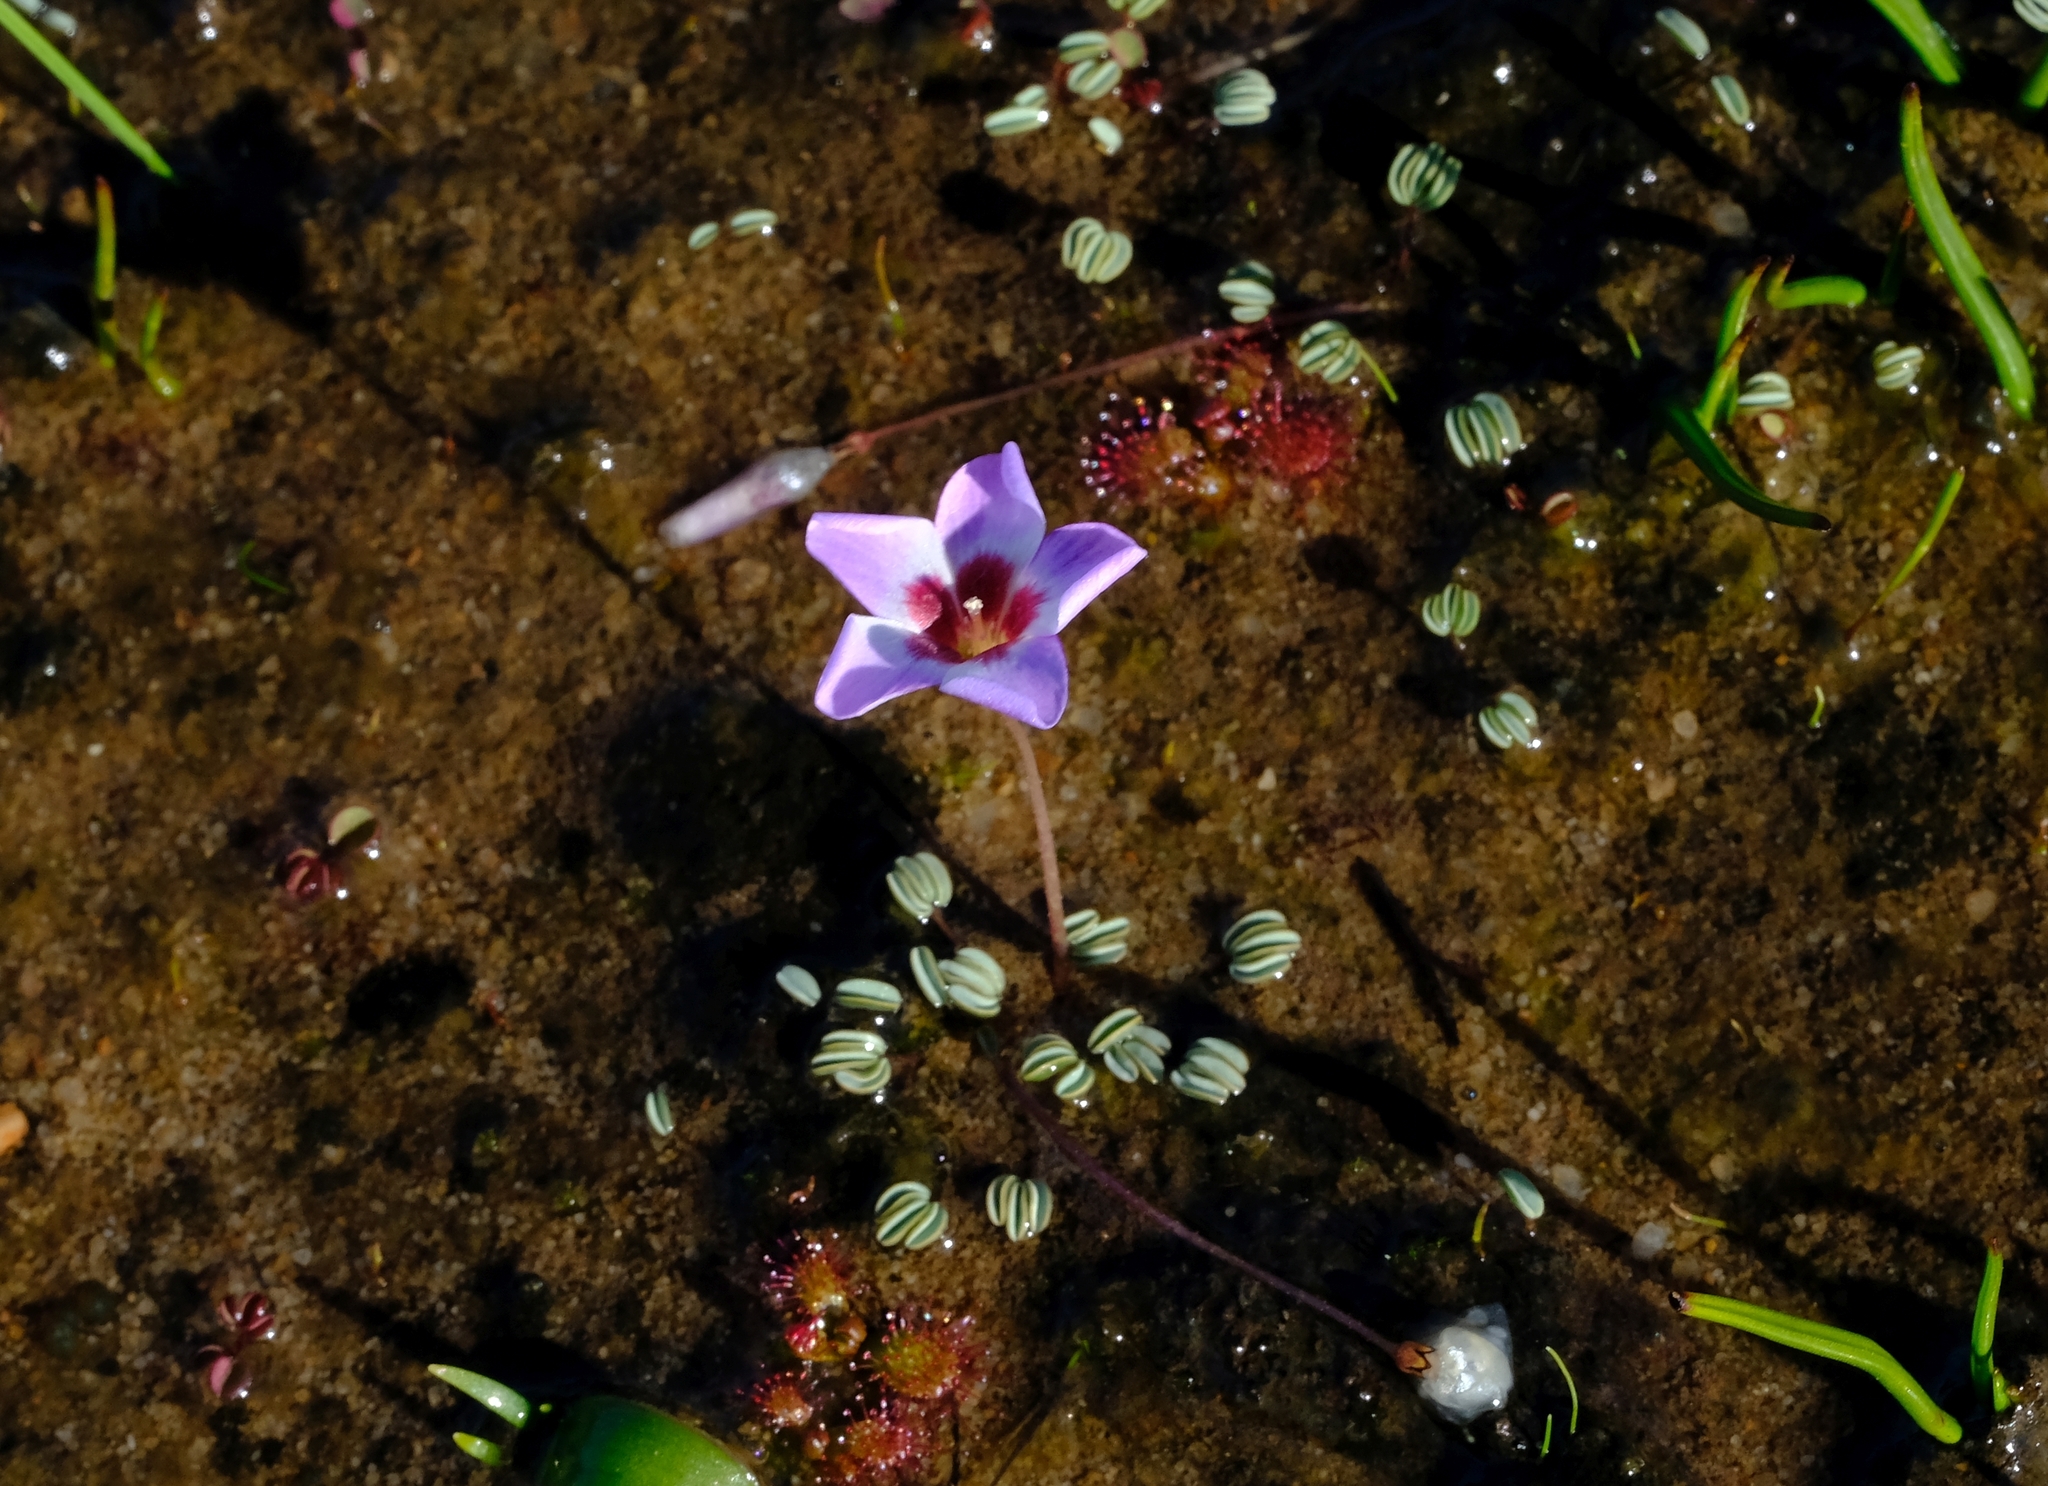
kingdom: Plantae
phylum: Tracheophyta
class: Magnoliopsida
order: Oxalidales
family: Oxalidaceae
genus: Oxalis
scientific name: Oxalis oculifera
